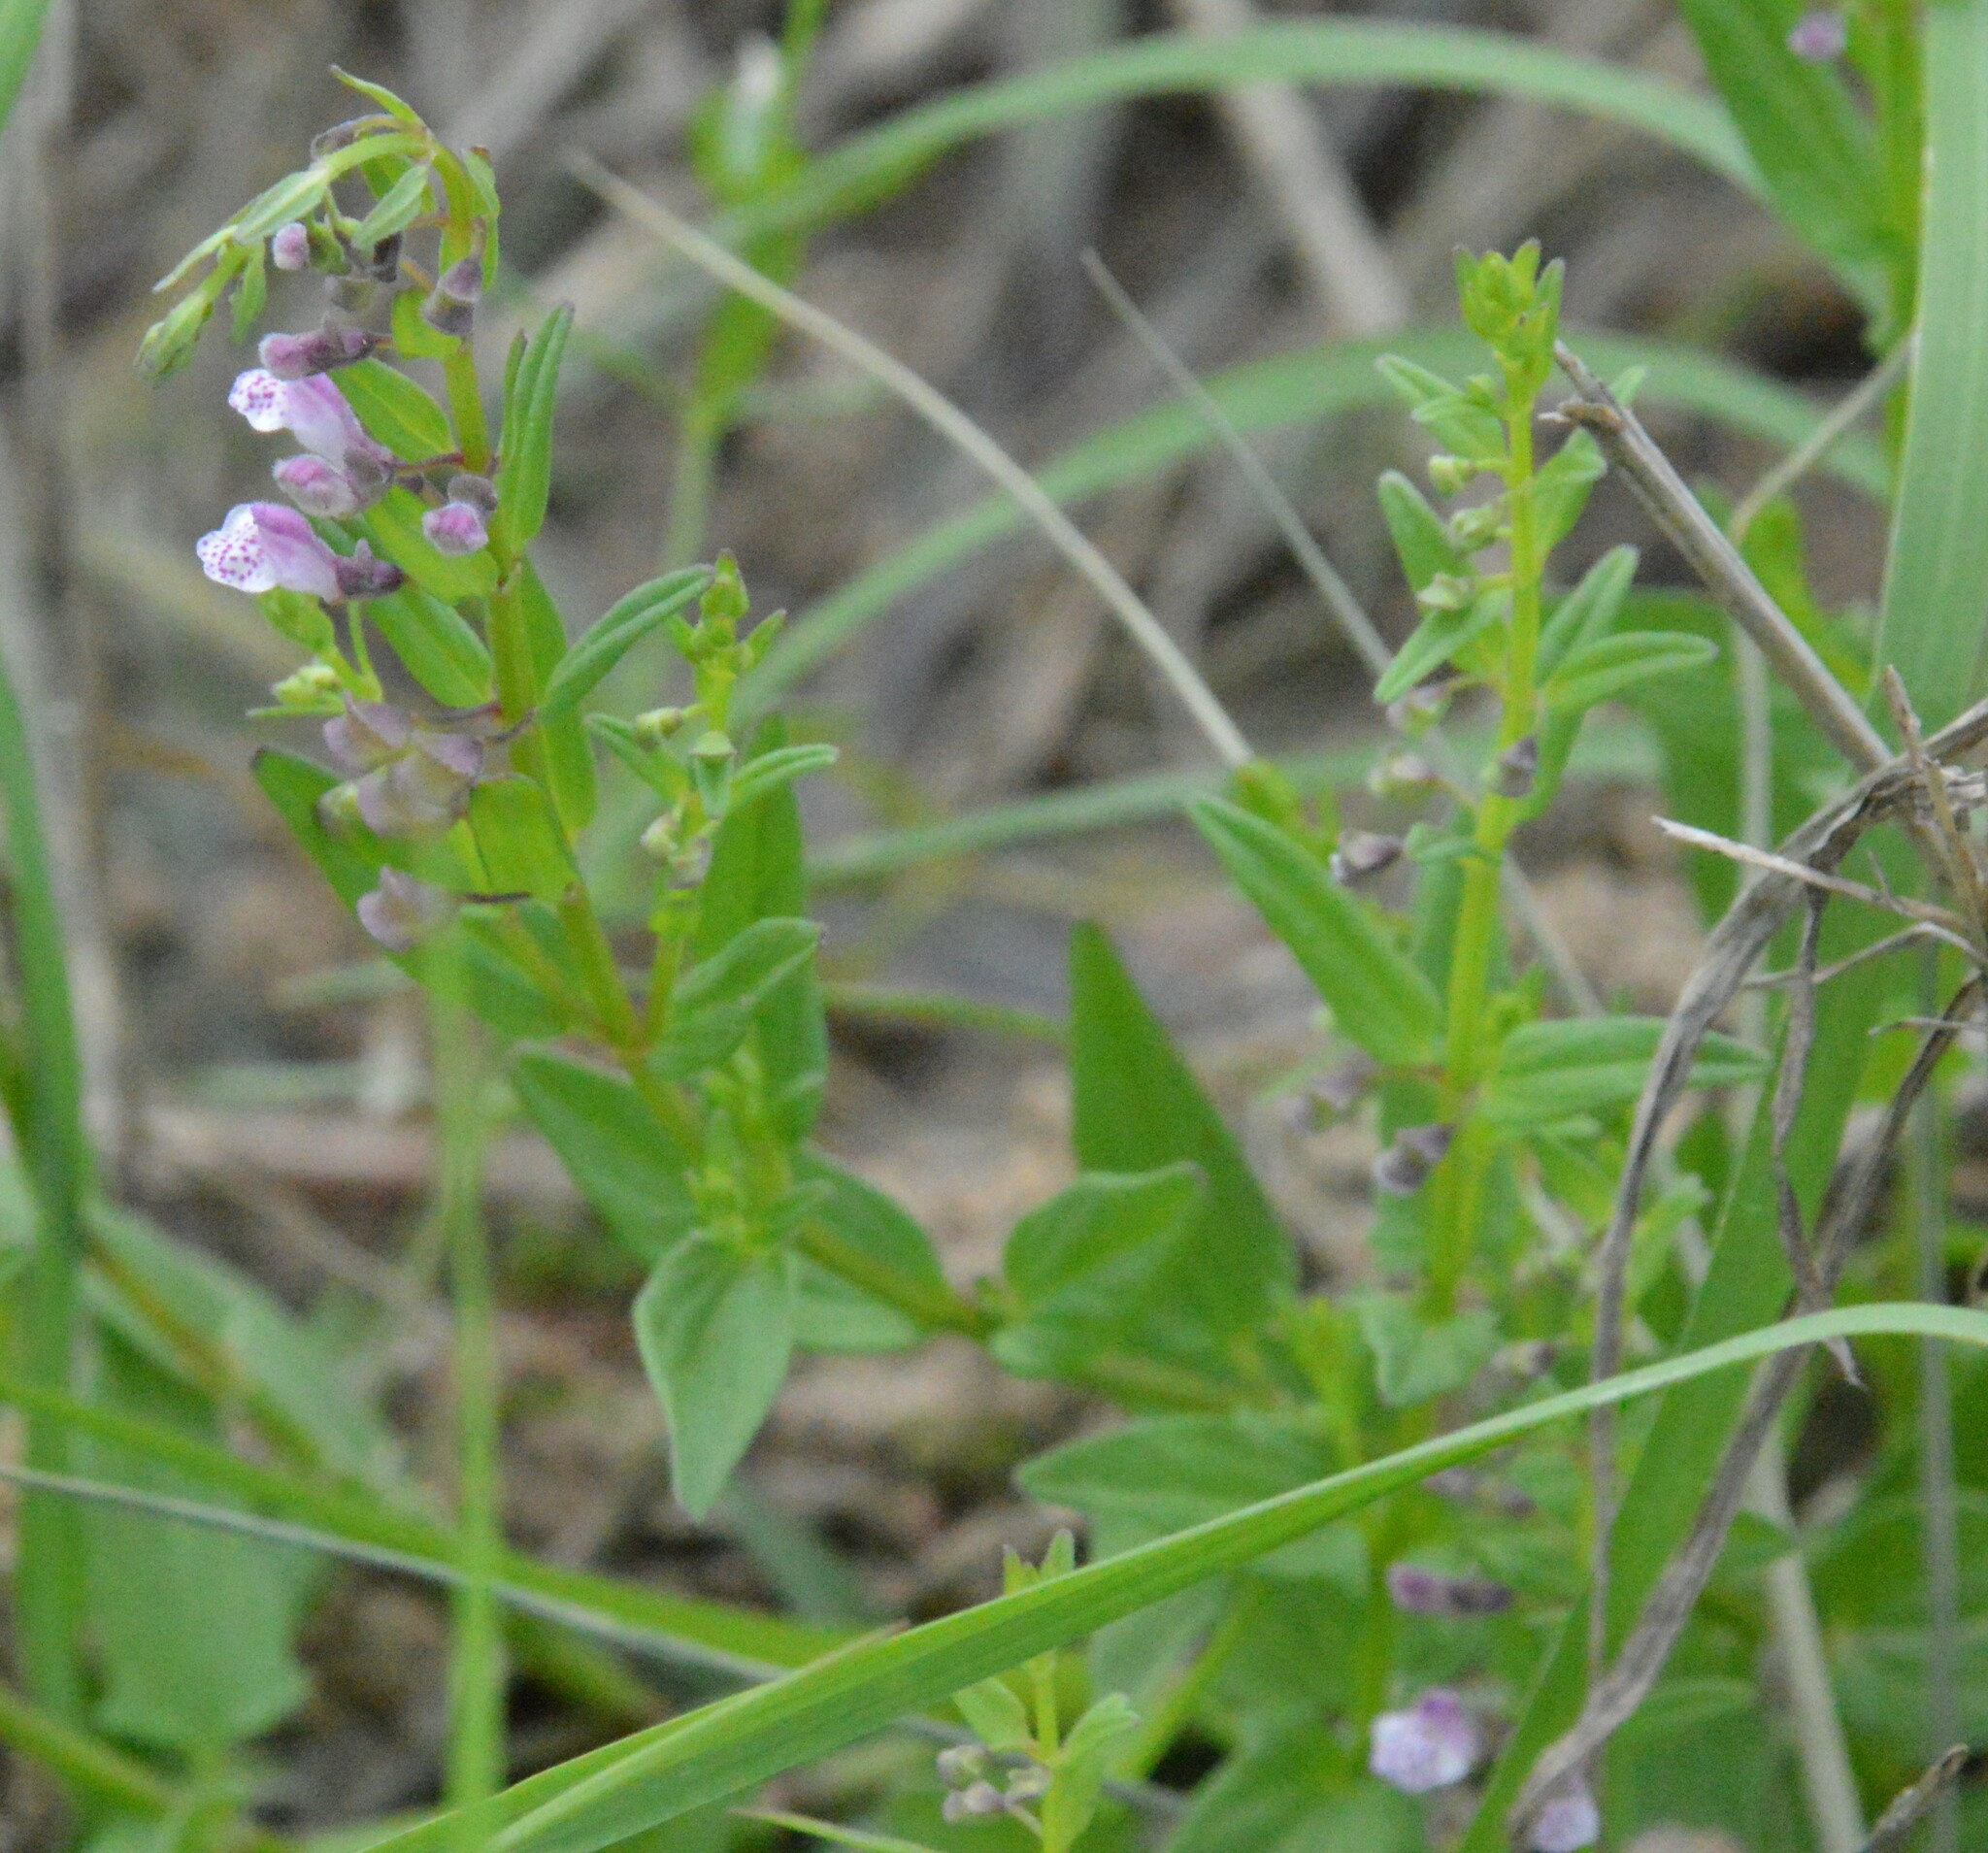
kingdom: Plantae
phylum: Tracheophyta
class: Magnoliopsida
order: Lamiales
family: Lamiaceae
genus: Scutellaria
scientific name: Scutellaria racemosa
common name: South american skullcap
